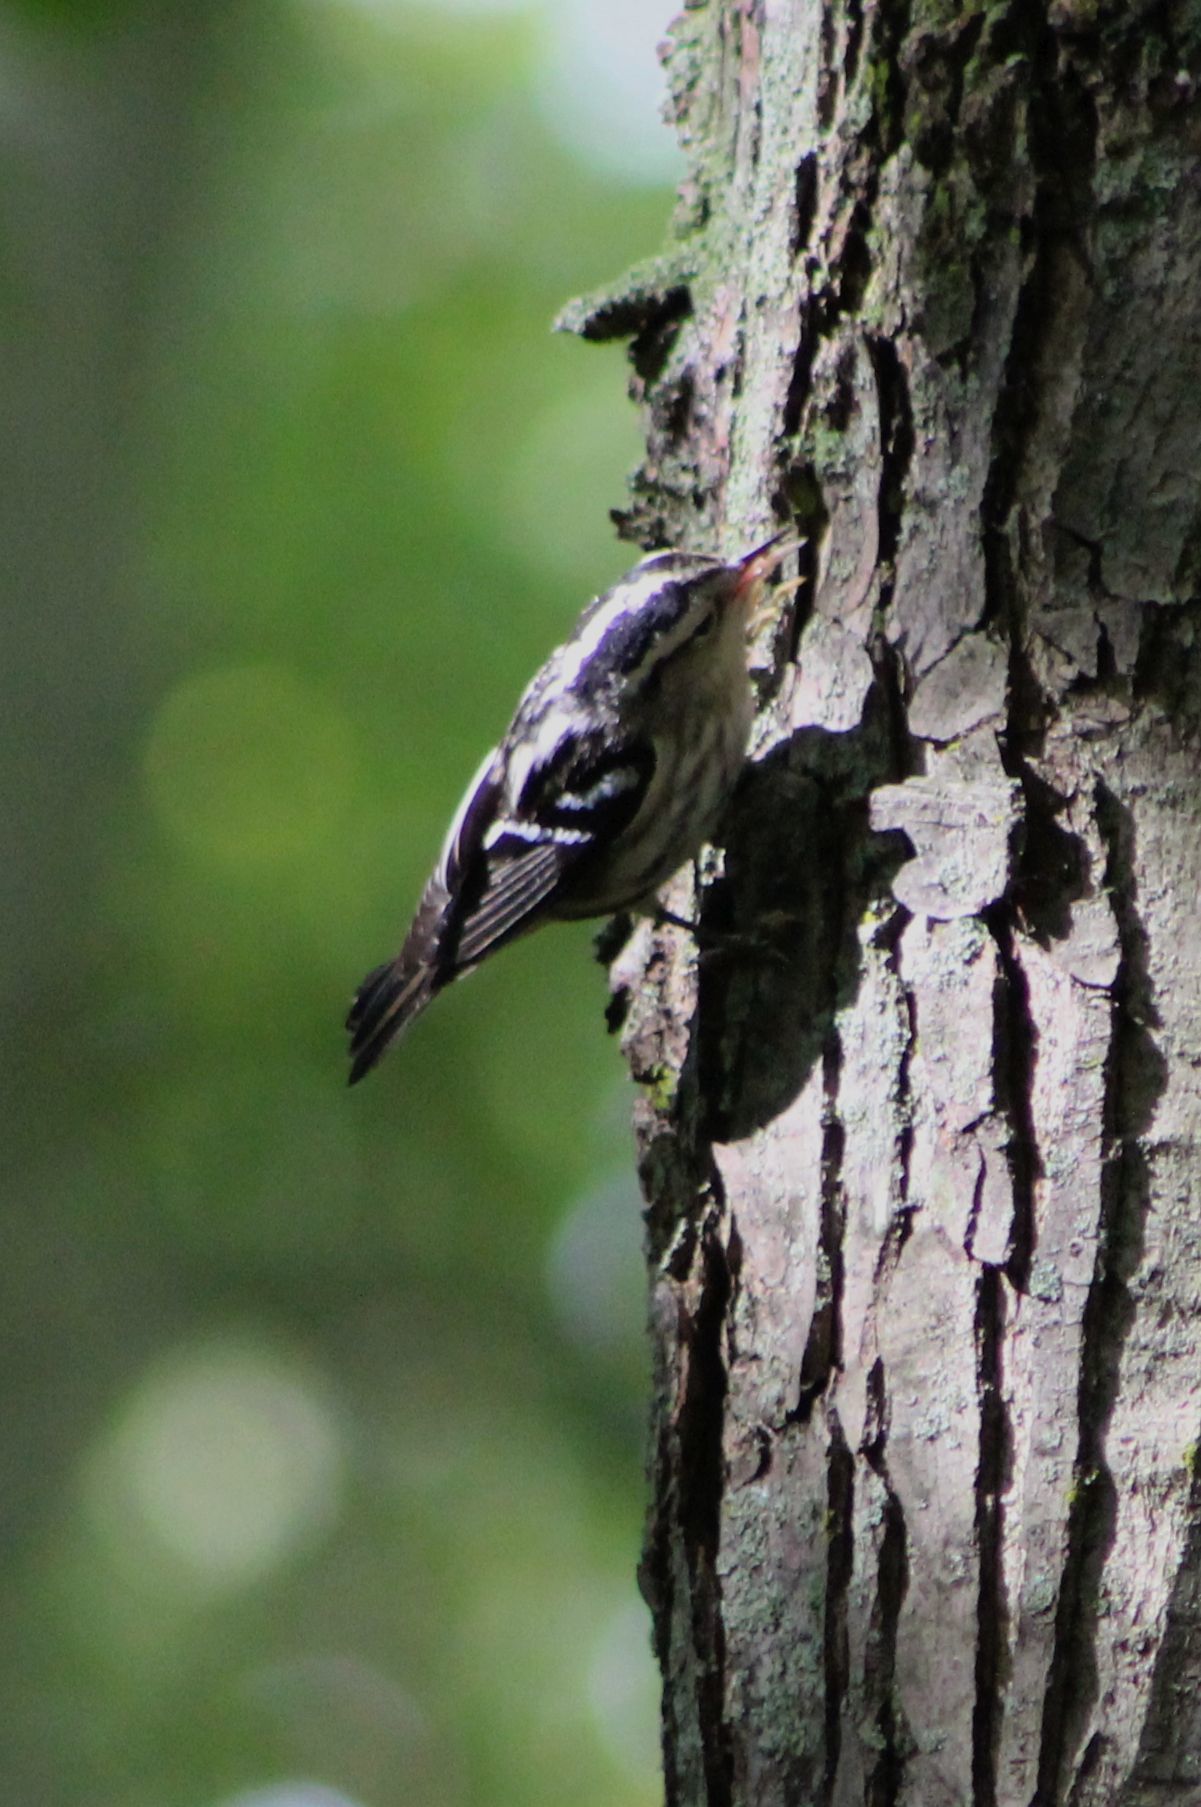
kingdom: Animalia
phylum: Chordata
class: Aves
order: Passeriformes
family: Parulidae
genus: Mniotilta
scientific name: Mniotilta varia
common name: Black-and-white warbler
